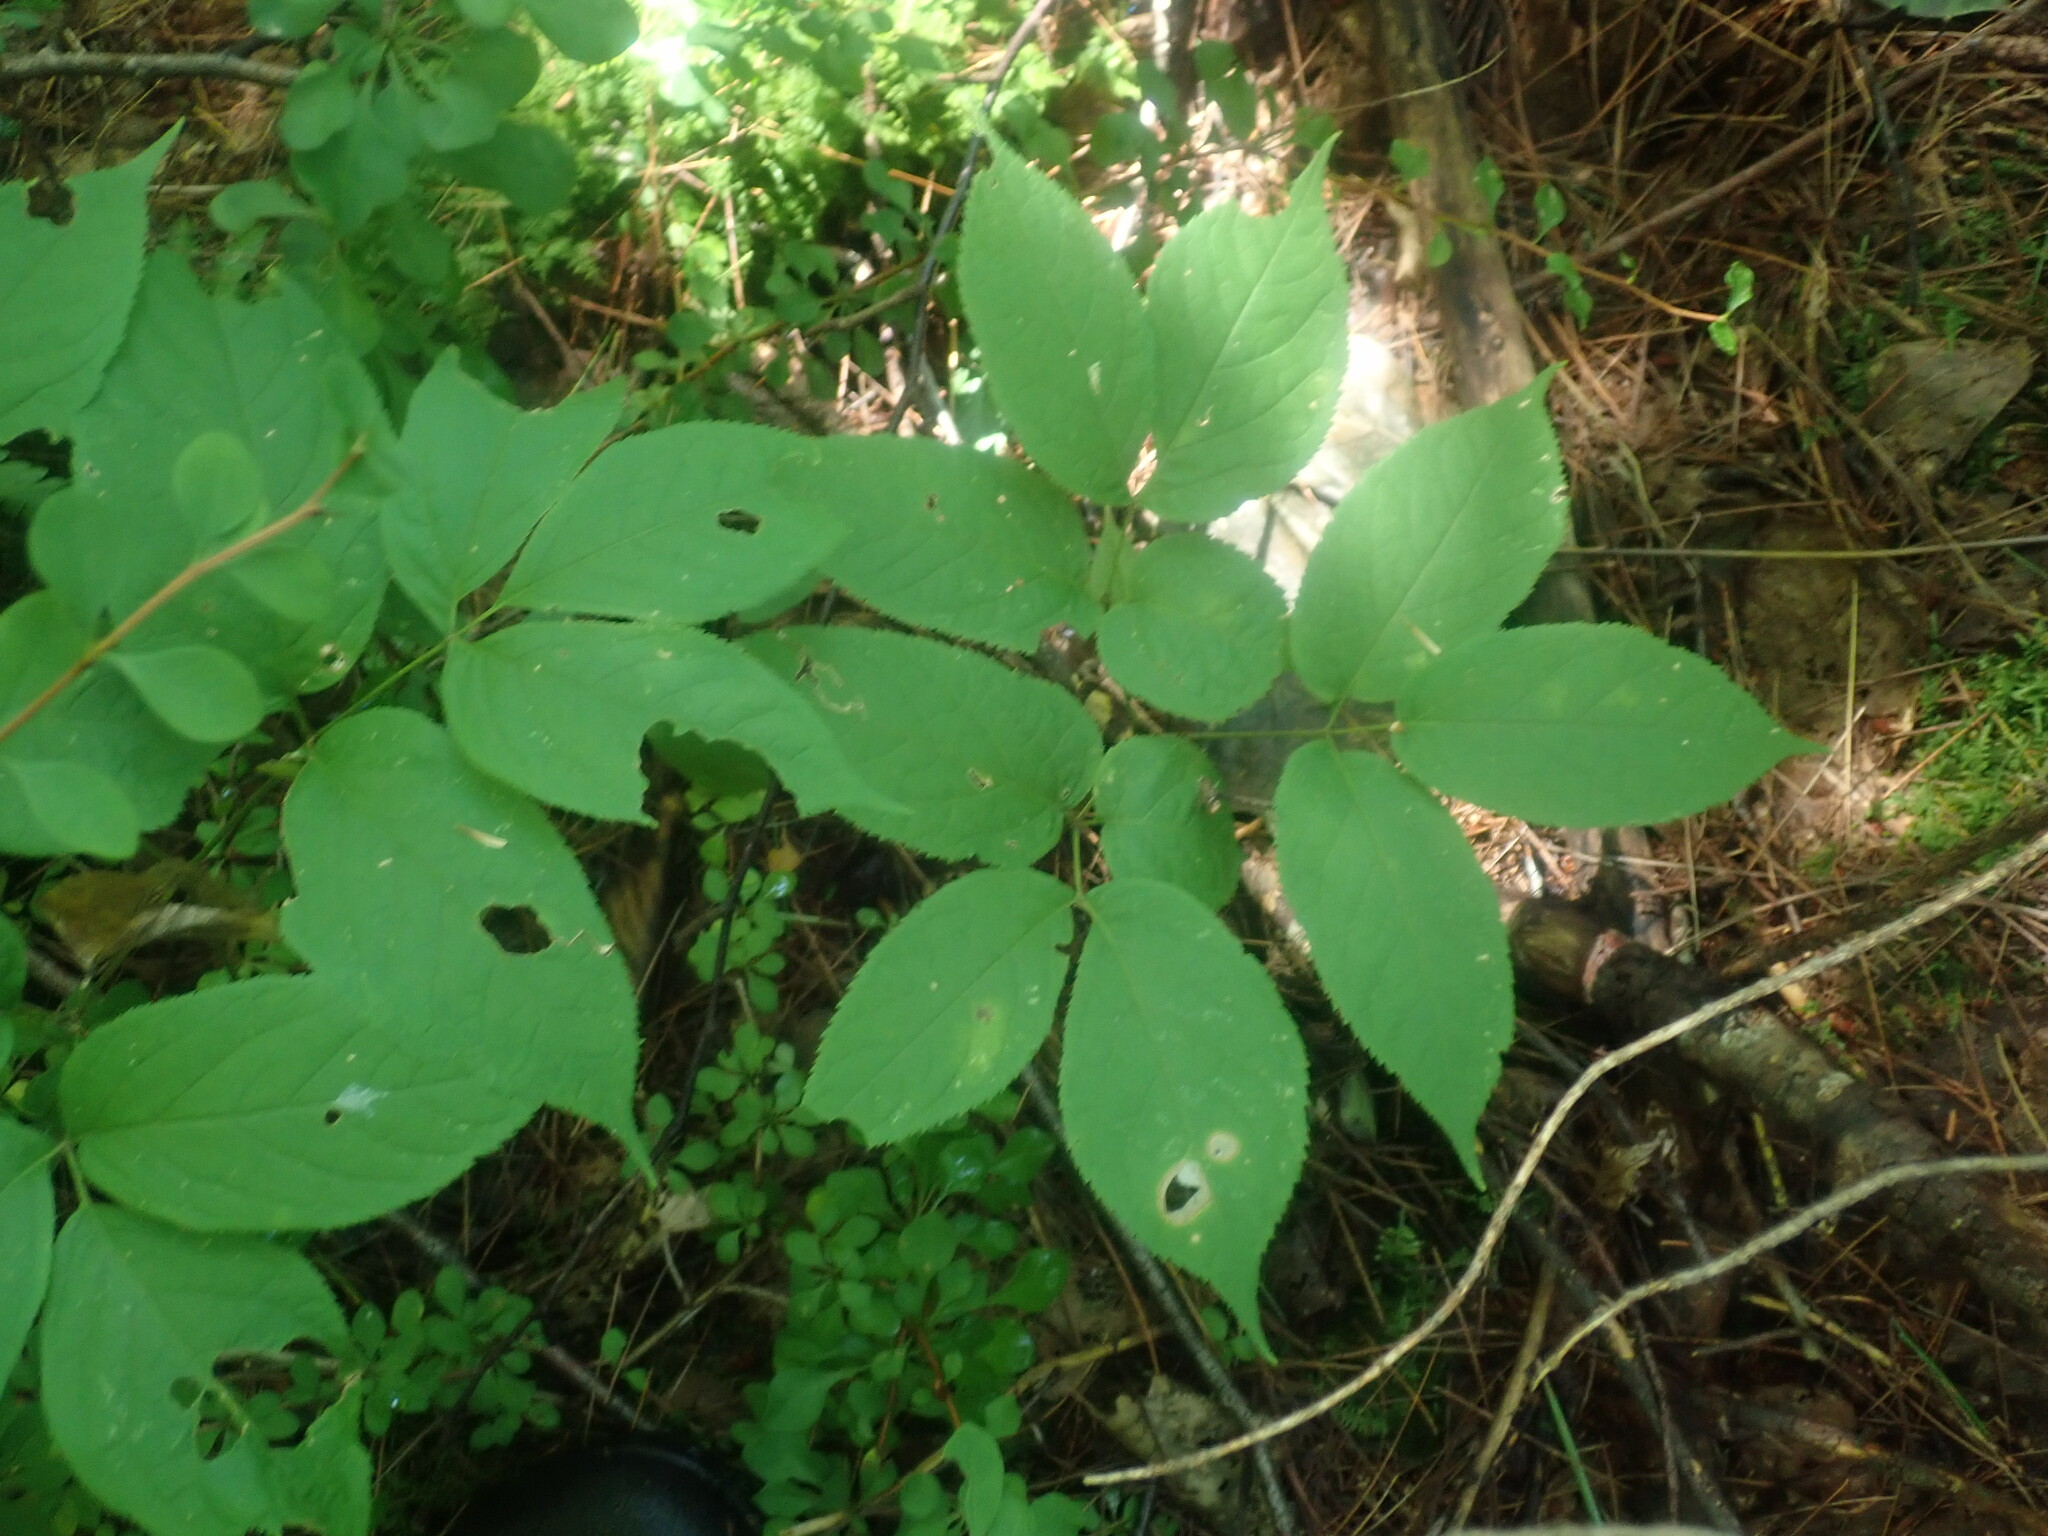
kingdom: Plantae
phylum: Tracheophyta
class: Magnoliopsida
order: Apiales
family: Araliaceae
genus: Aralia
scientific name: Aralia nudicaulis
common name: Wild sarsaparilla
